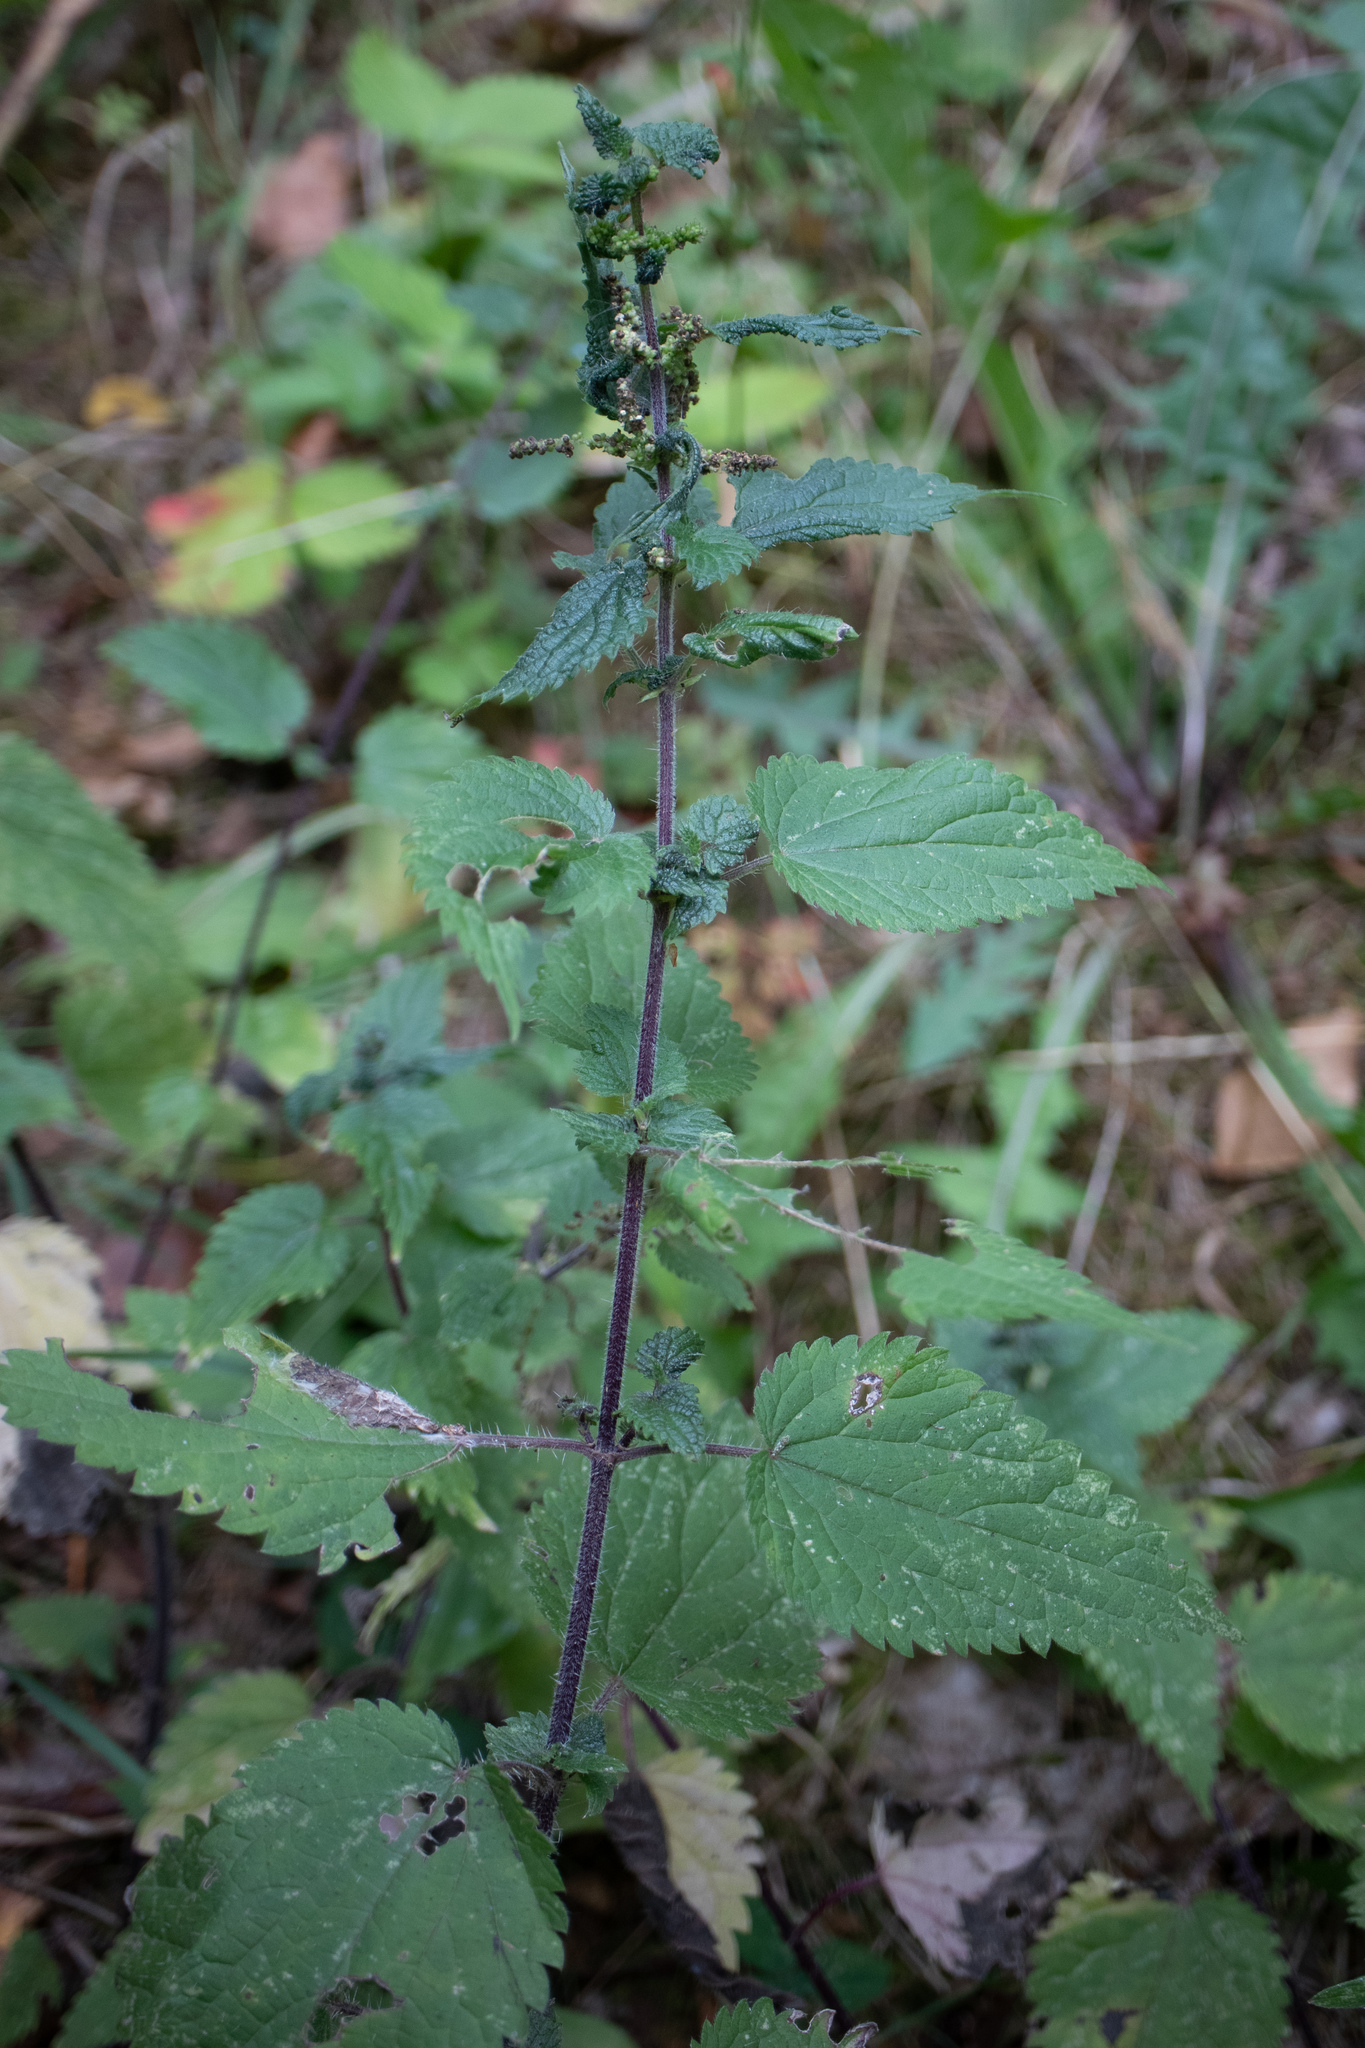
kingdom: Plantae
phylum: Tracheophyta
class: Magnoliopsida
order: Rosales
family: Urticaceae
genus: Urtica
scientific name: Urtica dioica
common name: Common nettle
